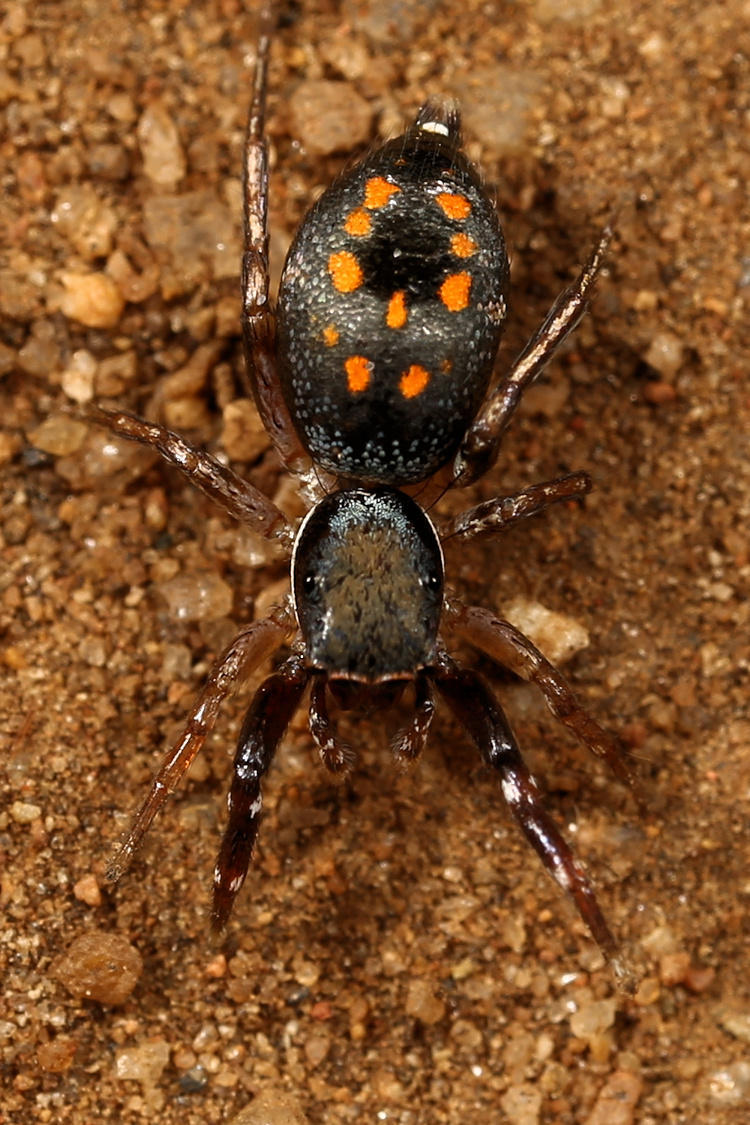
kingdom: Animalia
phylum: Arthropoda
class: Arachnida
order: Araneae
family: Salticidae
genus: Natta
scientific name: Natta horizontalis
